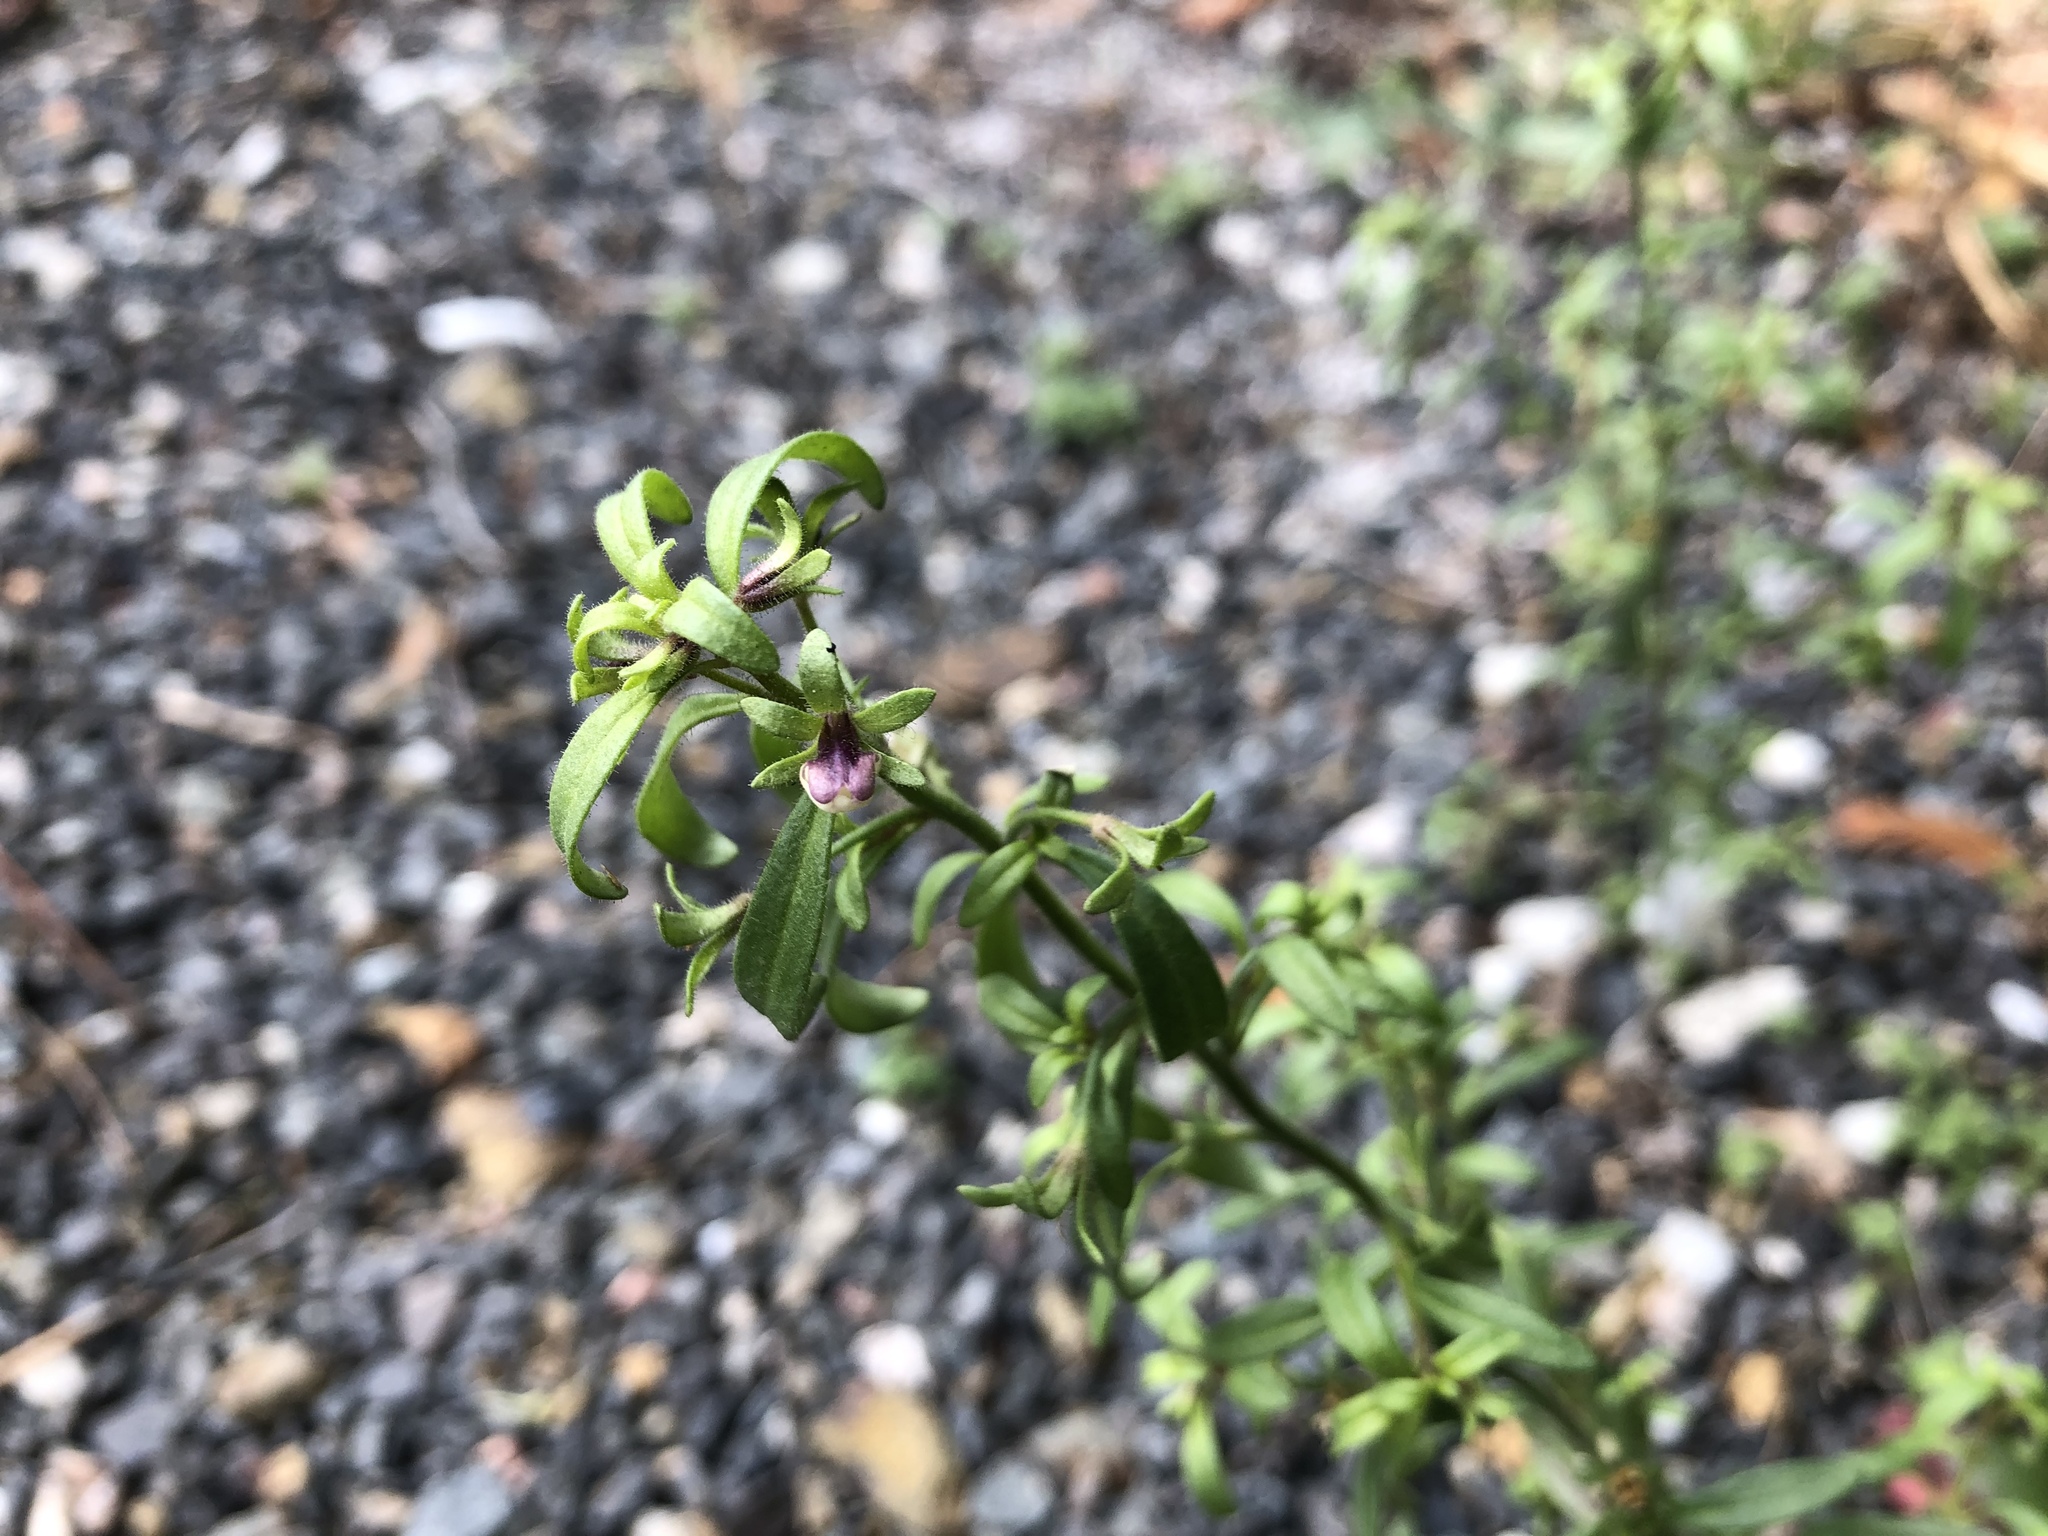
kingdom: Plantae
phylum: Tracheophyta
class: Magnoliopsida
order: Lamiales
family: Plantaginaceae
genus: Chaenorhinum
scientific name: Chaenorhinum minus
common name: Dwarf snapdragon
